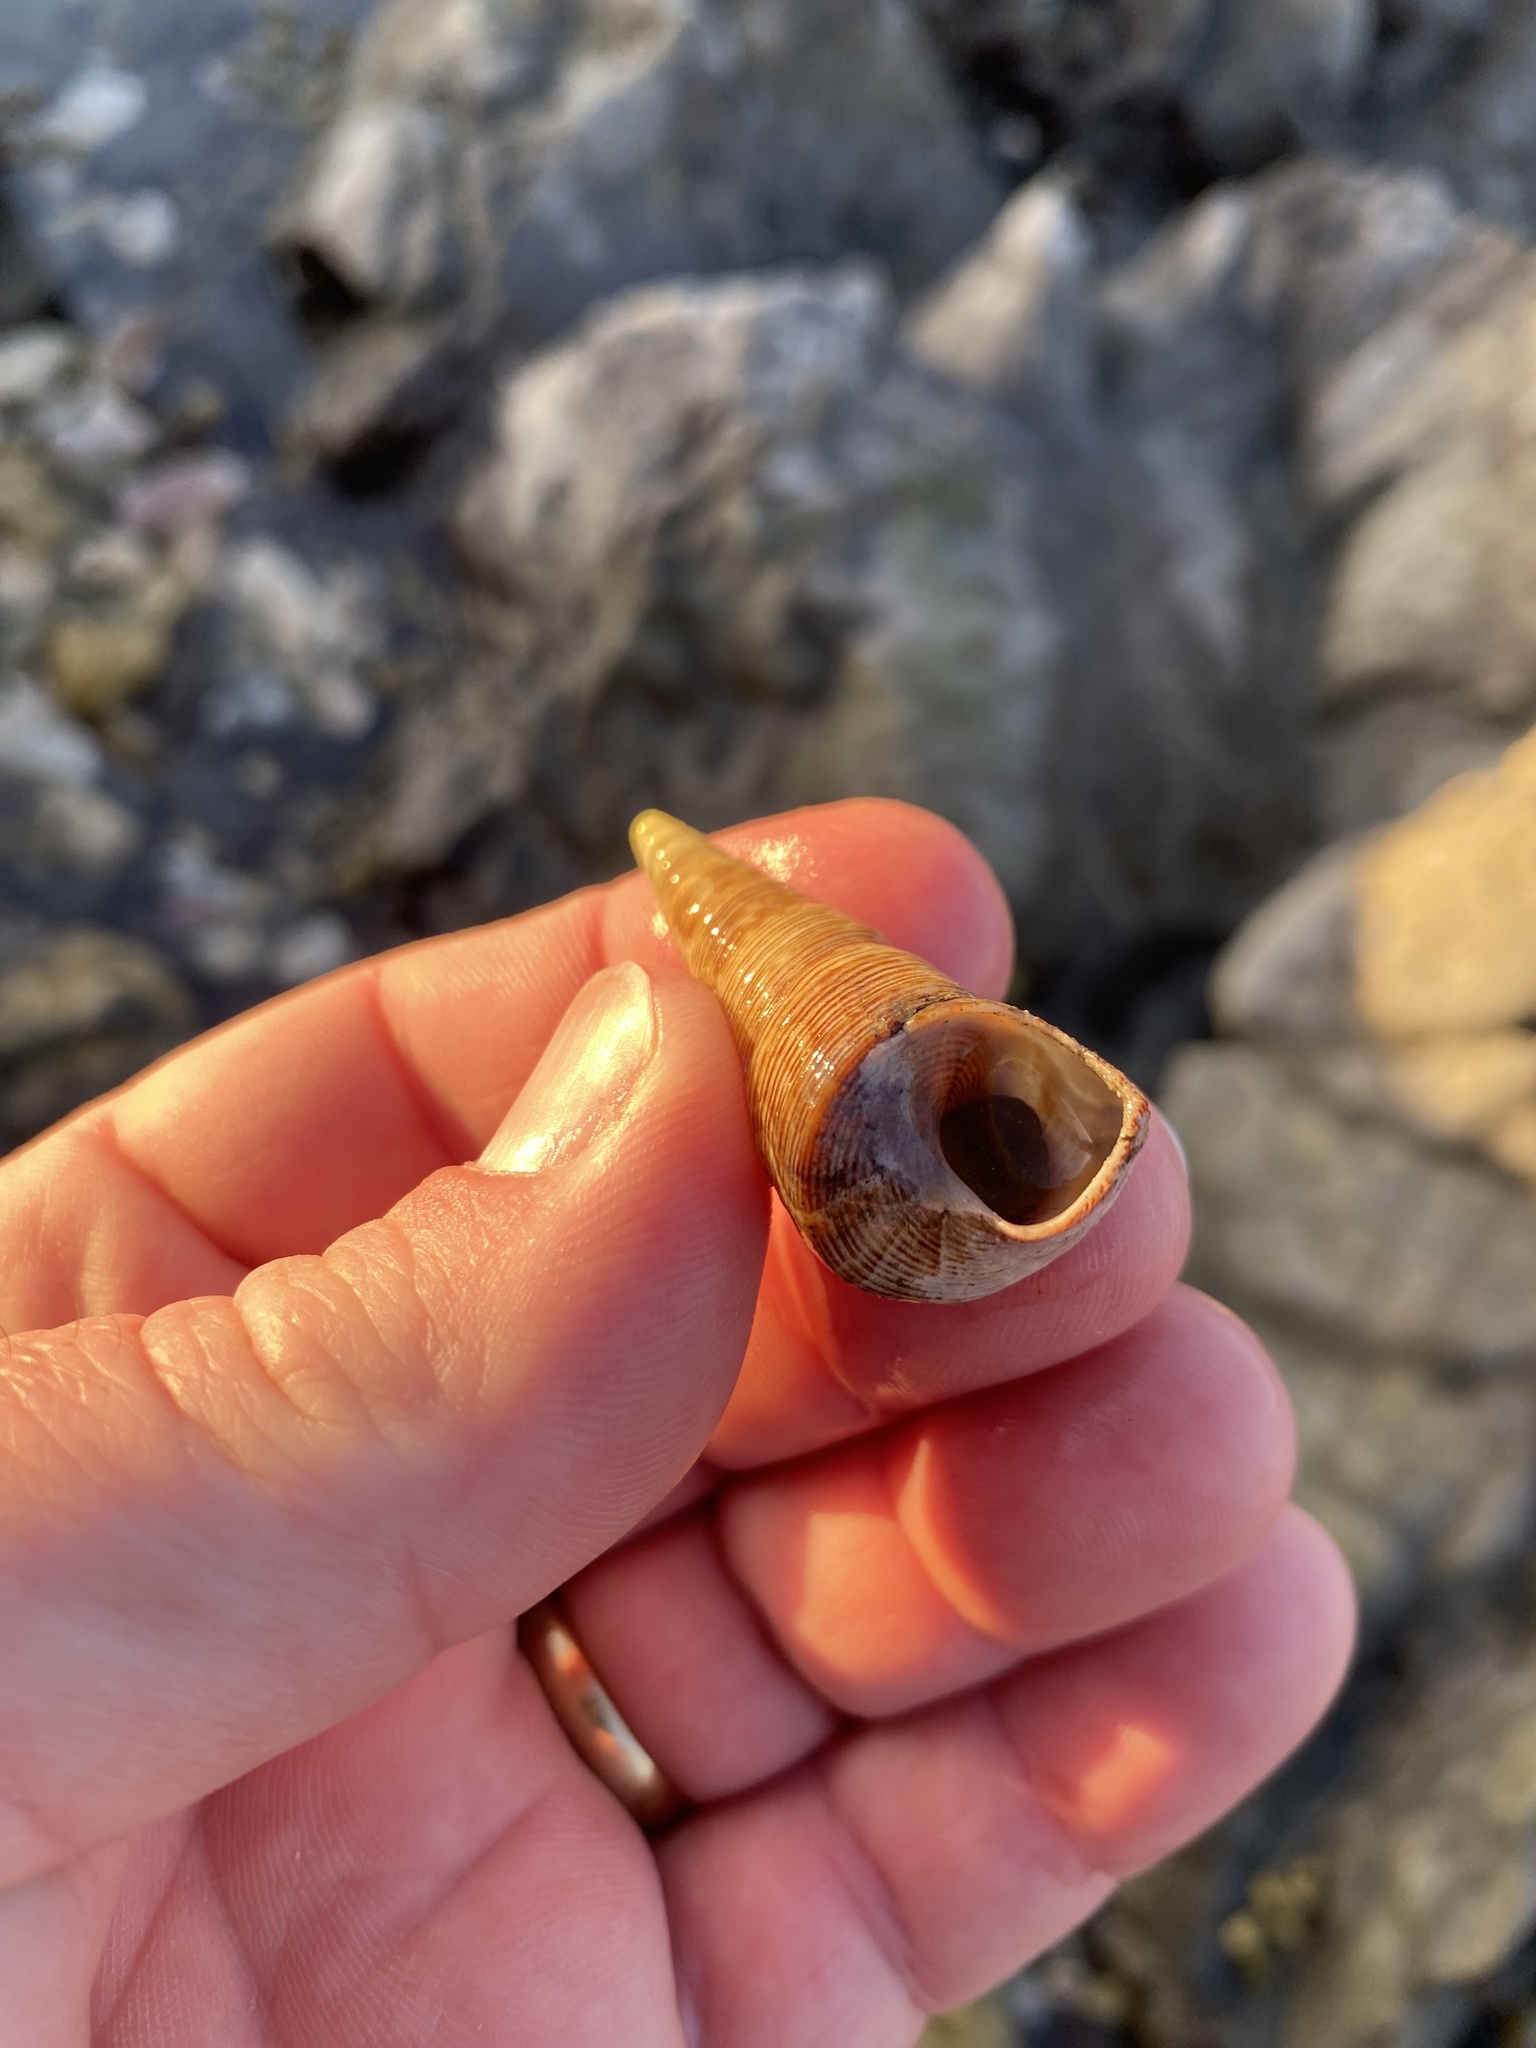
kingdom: Animalia
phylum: Mollusca
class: Gastropoda
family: Turritellidae
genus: Maoricolpus
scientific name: Maoricolpus roseus
